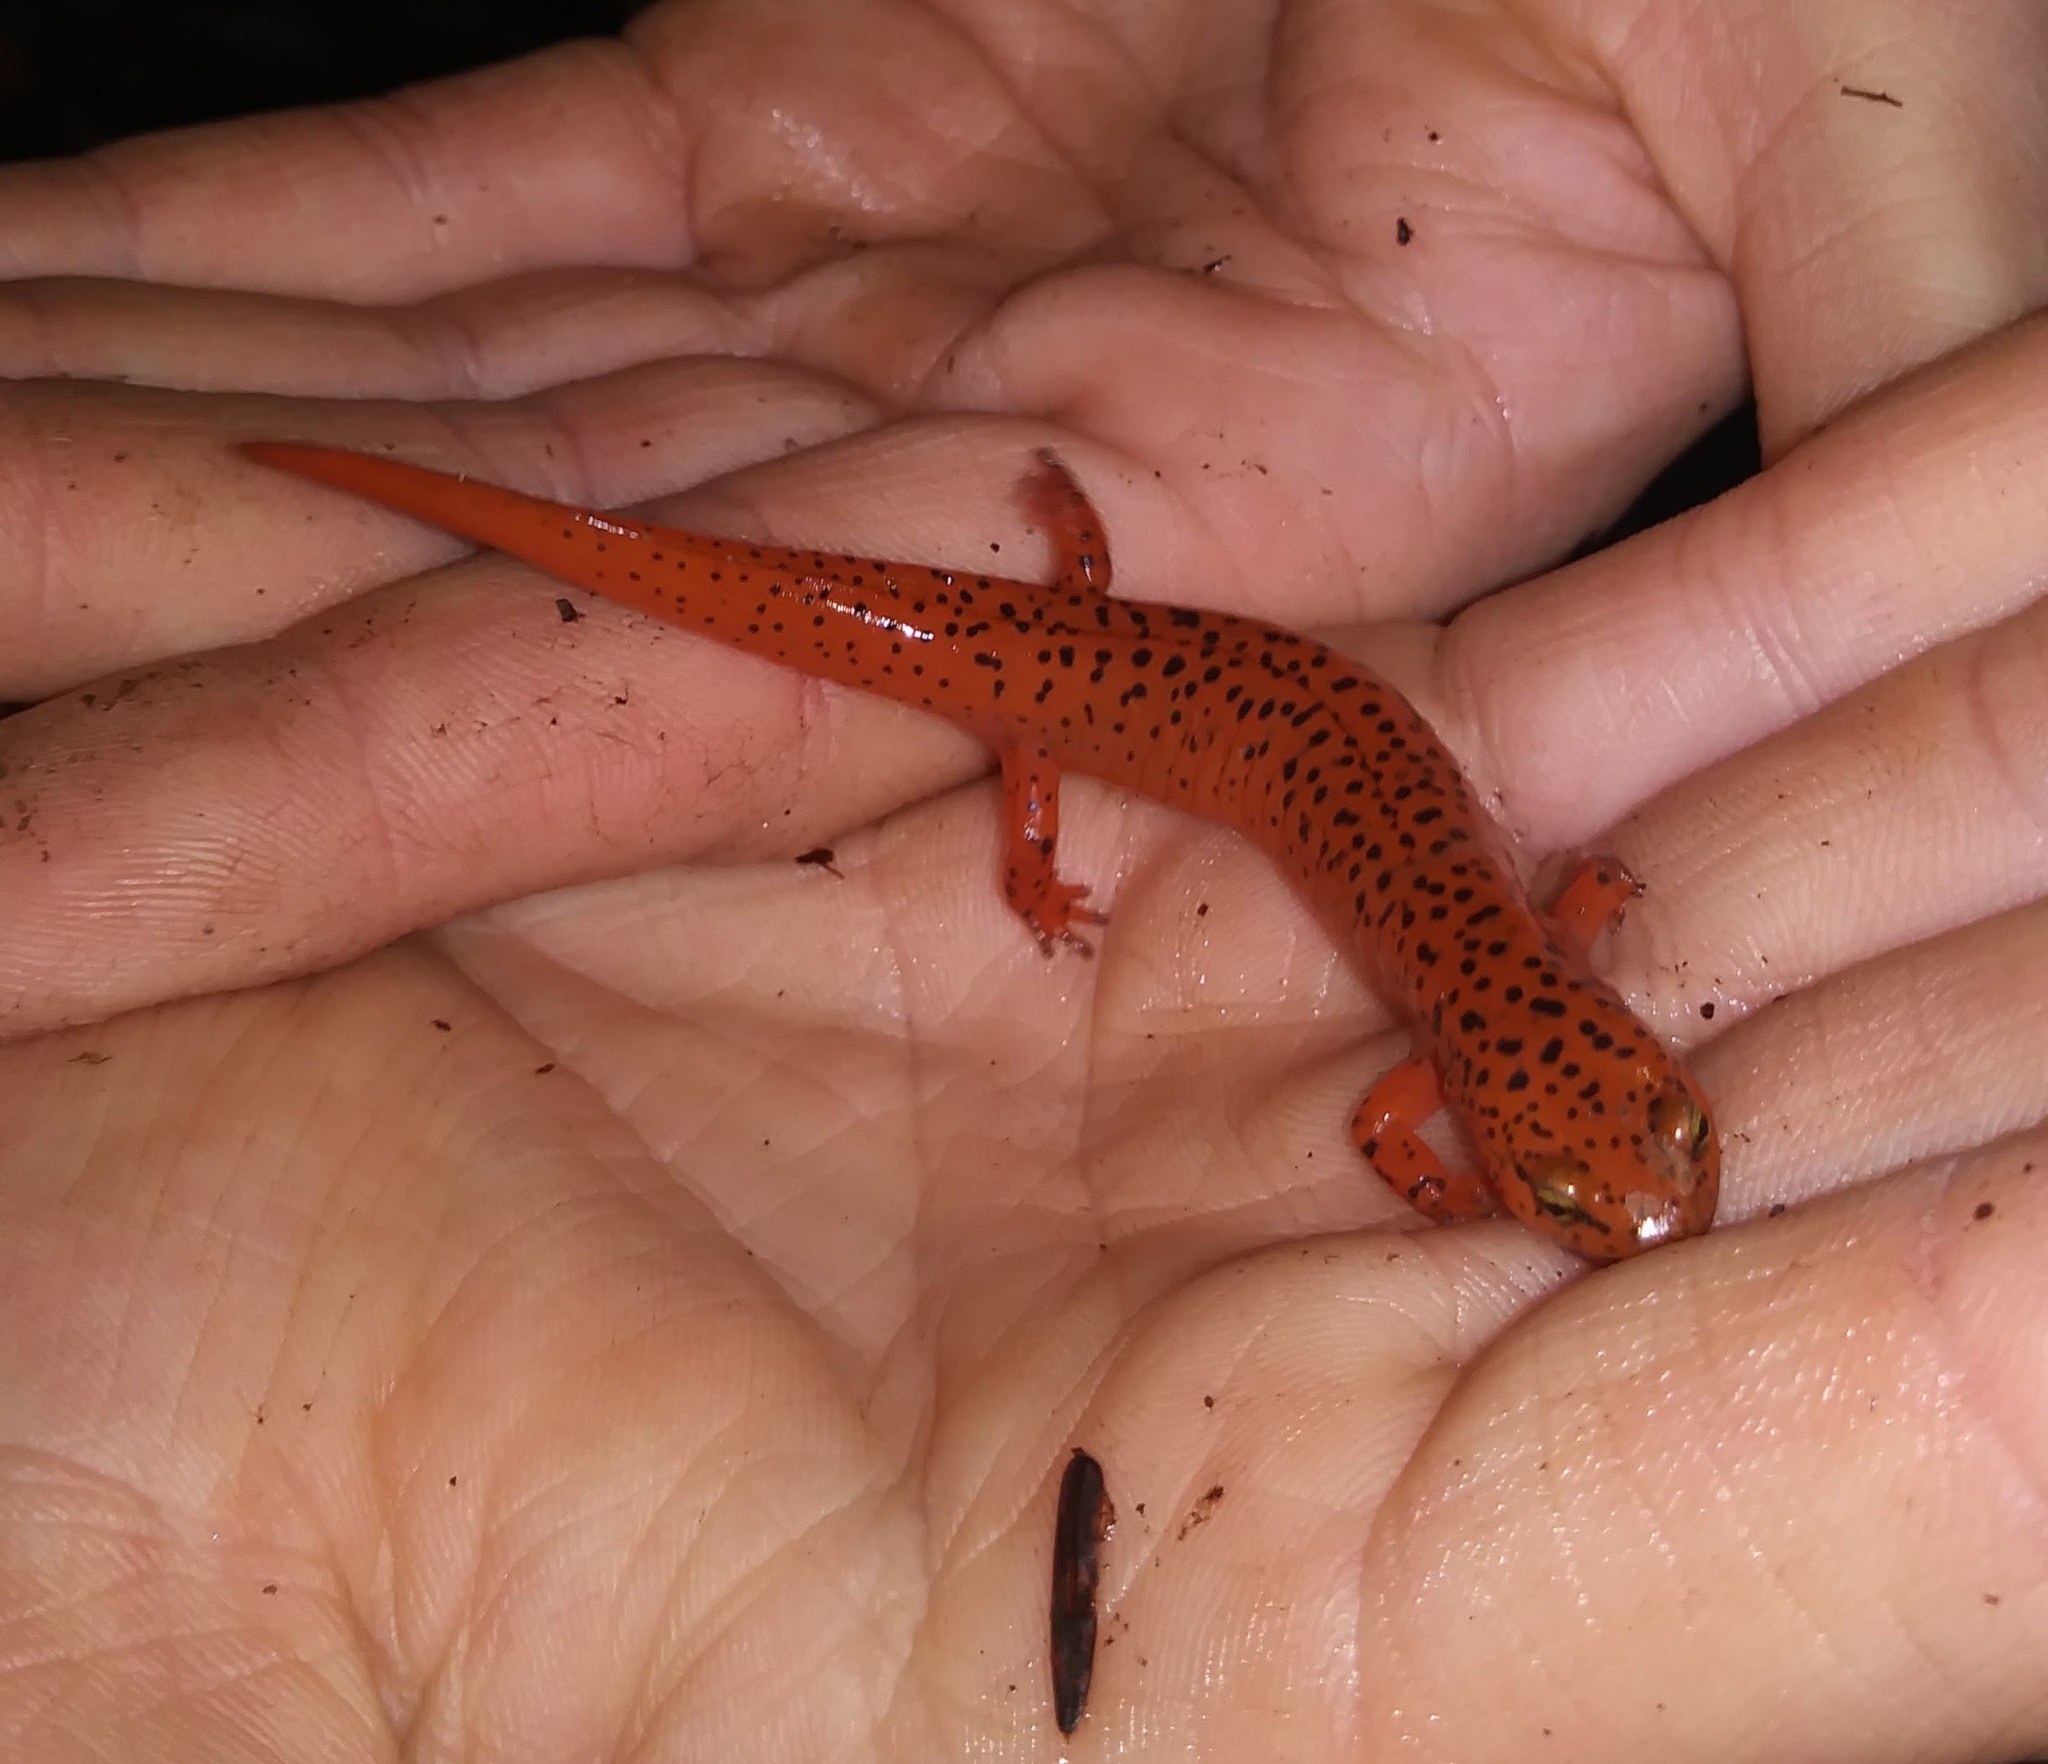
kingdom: Animalia
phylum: Chordata
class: Amphibia
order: Caudata
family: Plethodontidae
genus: Pseudotriton
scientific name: Pseudotriton ruber
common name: Red salamander
